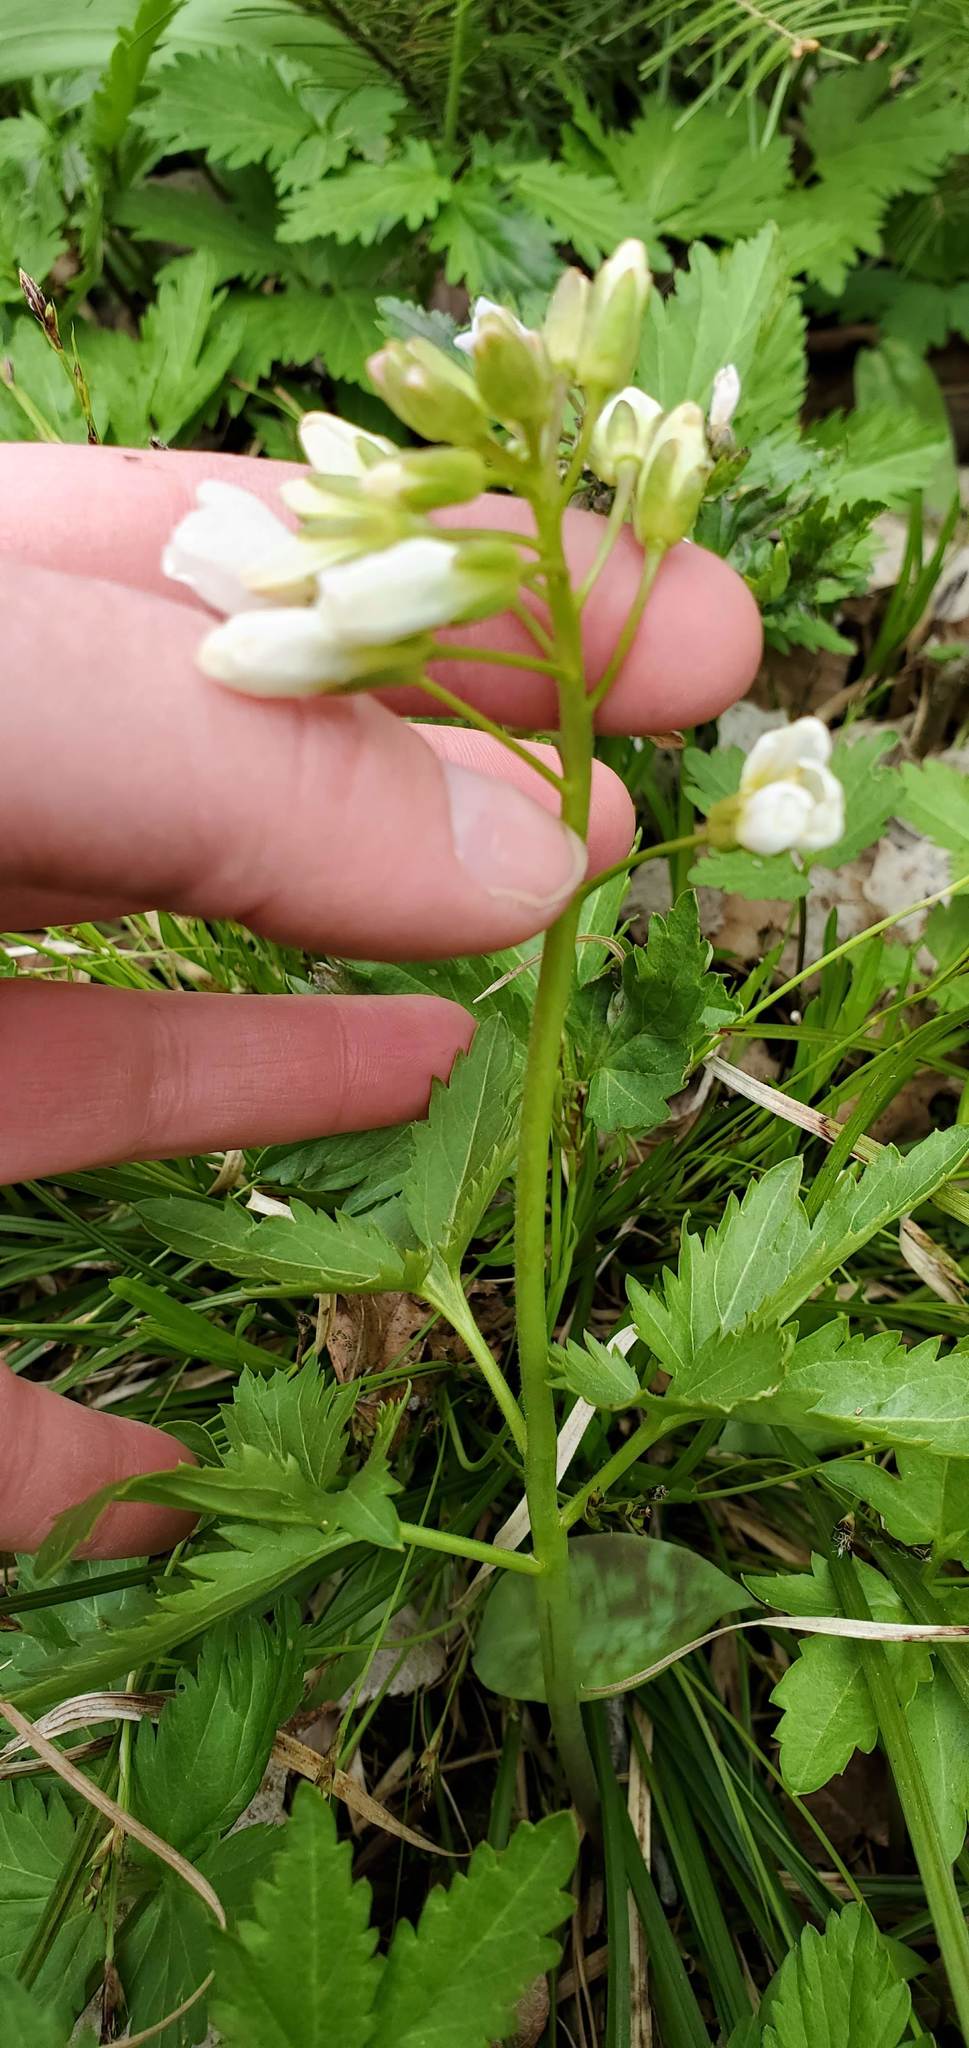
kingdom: Plantae
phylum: Tracheophyta
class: Magnoliopsida
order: Brassicales
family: Brassicaceae
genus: Cardamine
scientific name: Cardamine maxima
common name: Great bittercress
